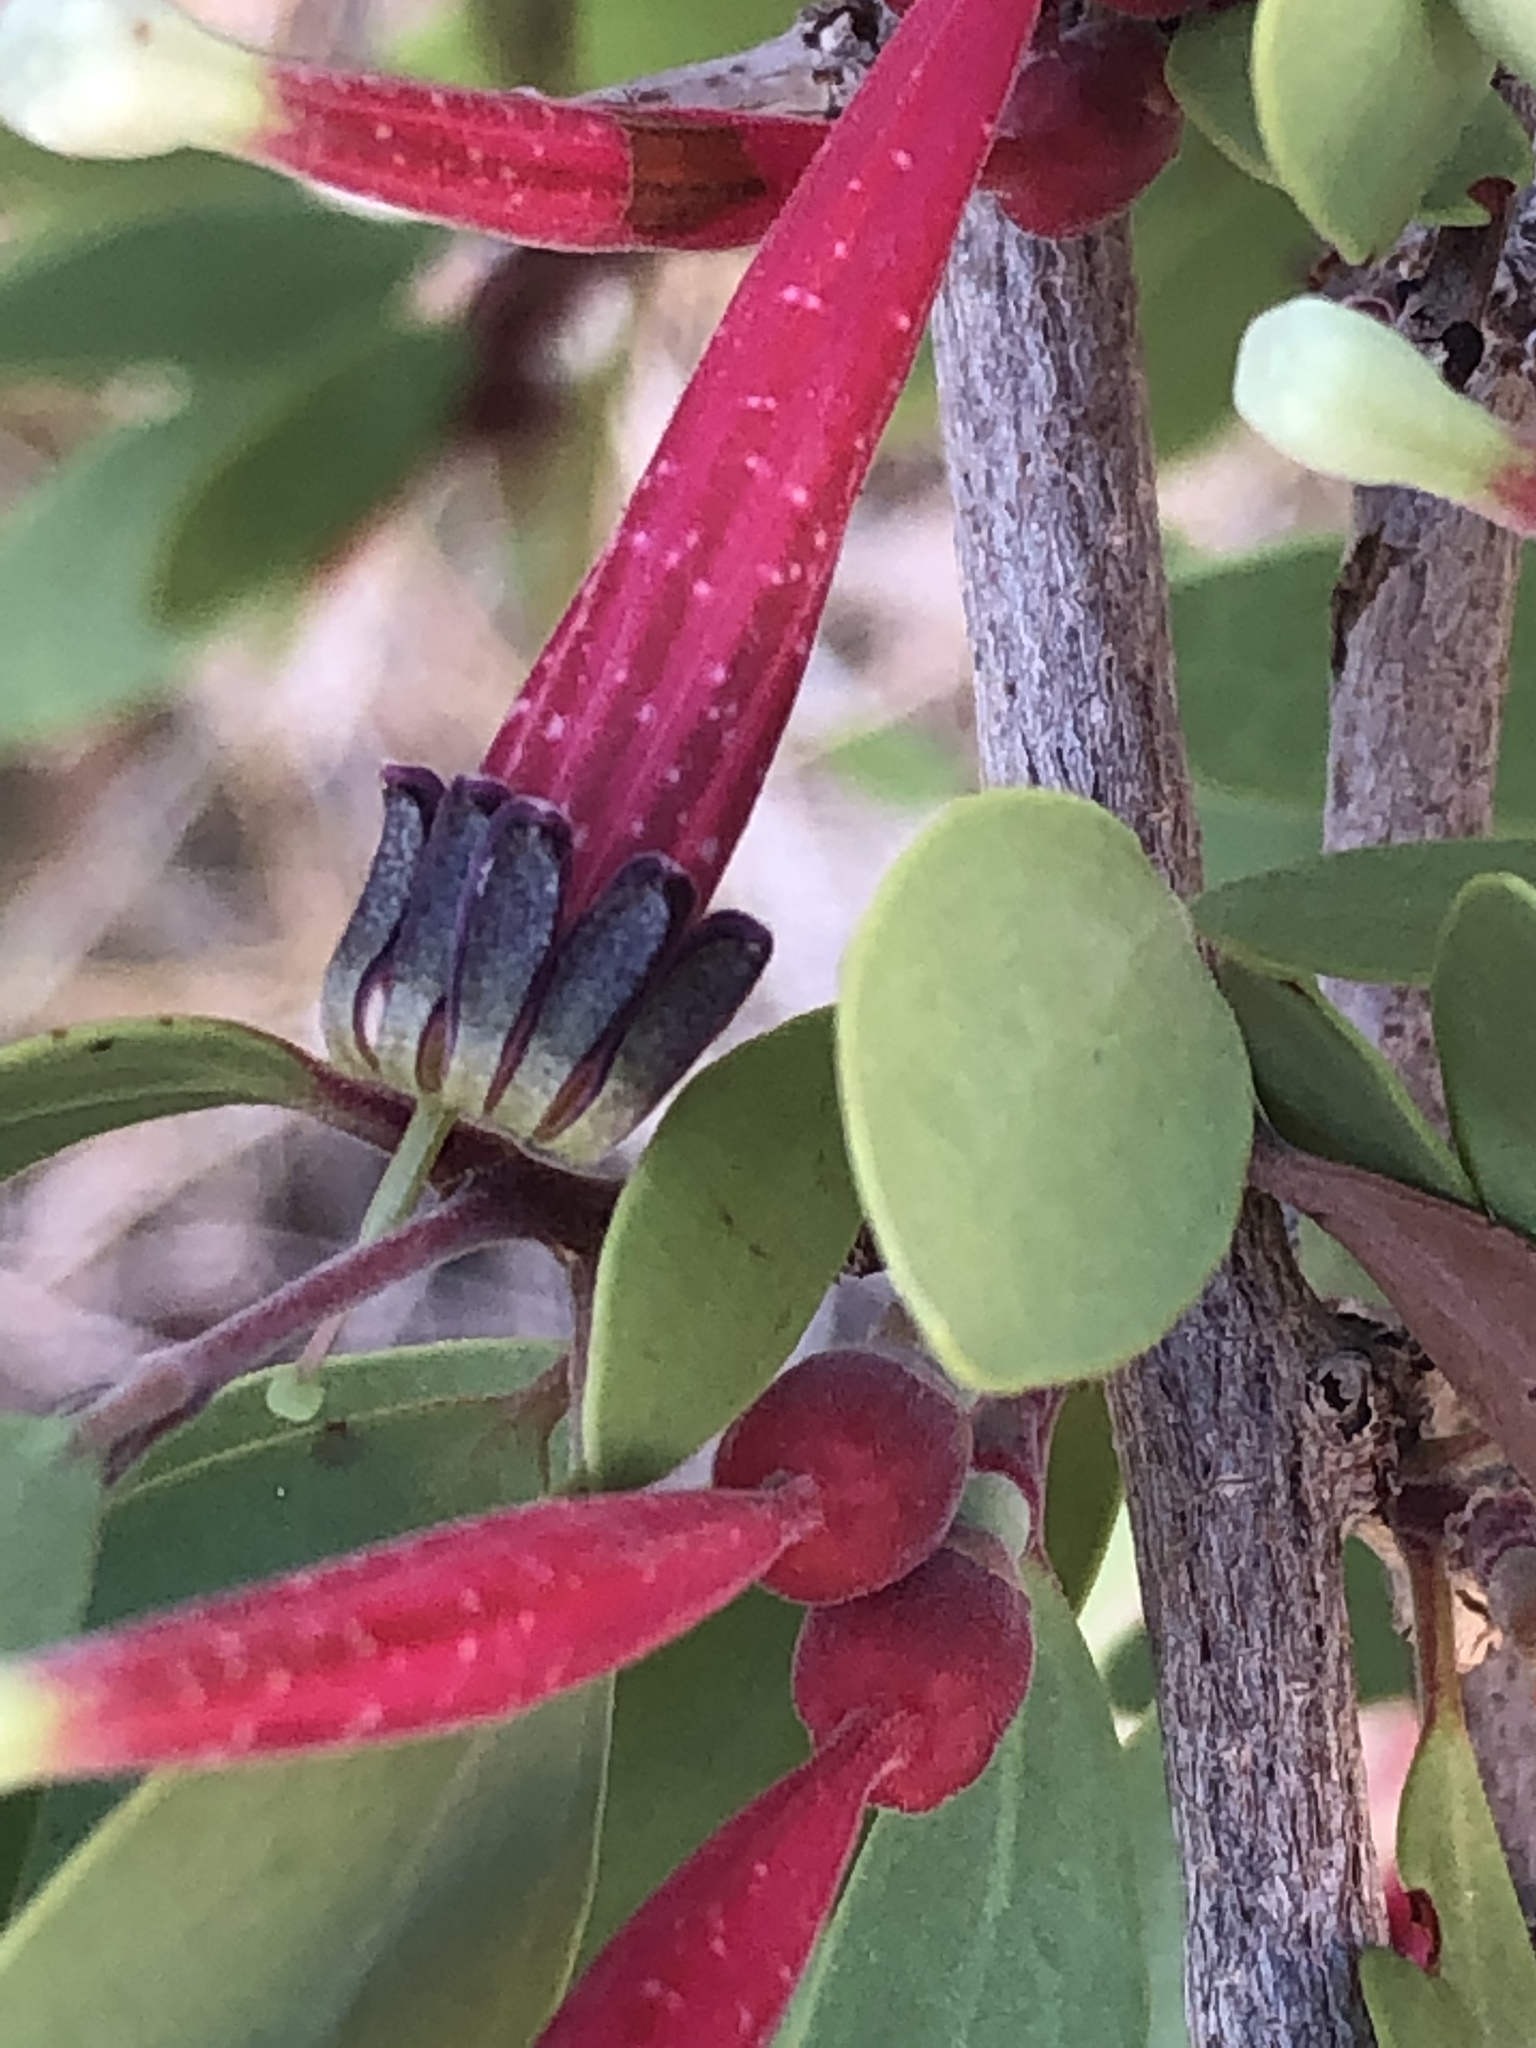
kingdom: Plantae
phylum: Tracheophyta
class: Magnoliopsida
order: Santalales
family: Loranthaceae
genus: Tapinanthus
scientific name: Tapinanthus oleifolius
